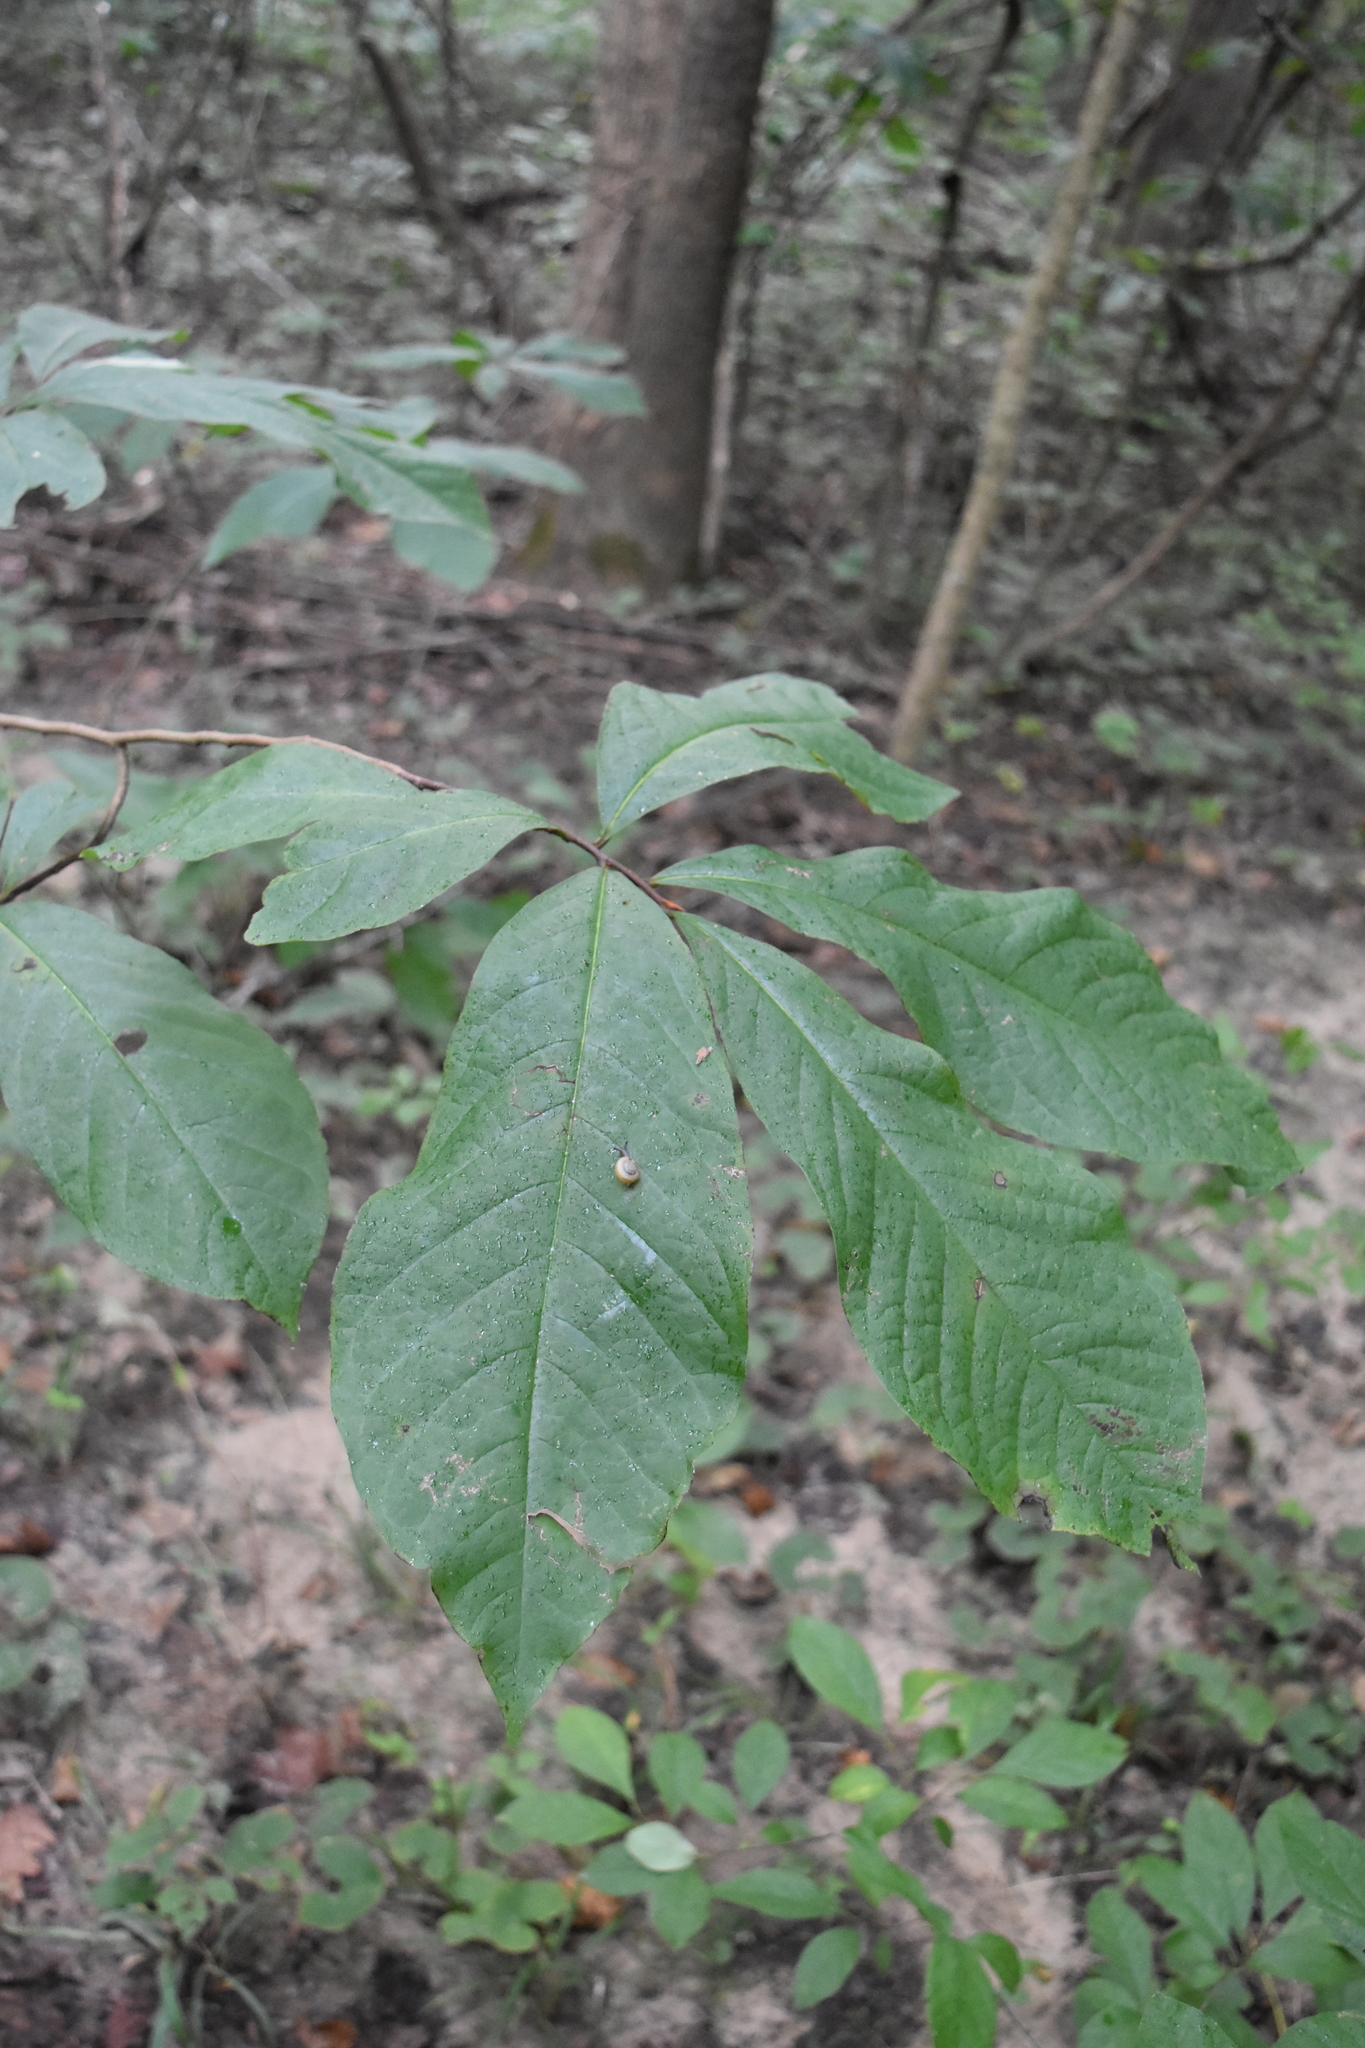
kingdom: Plantae
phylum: Tracheophyta
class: Magnoliopsida
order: Magnoliales
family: Annonaceae
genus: Asimina
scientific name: Asimina triloba
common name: Dog-banana
